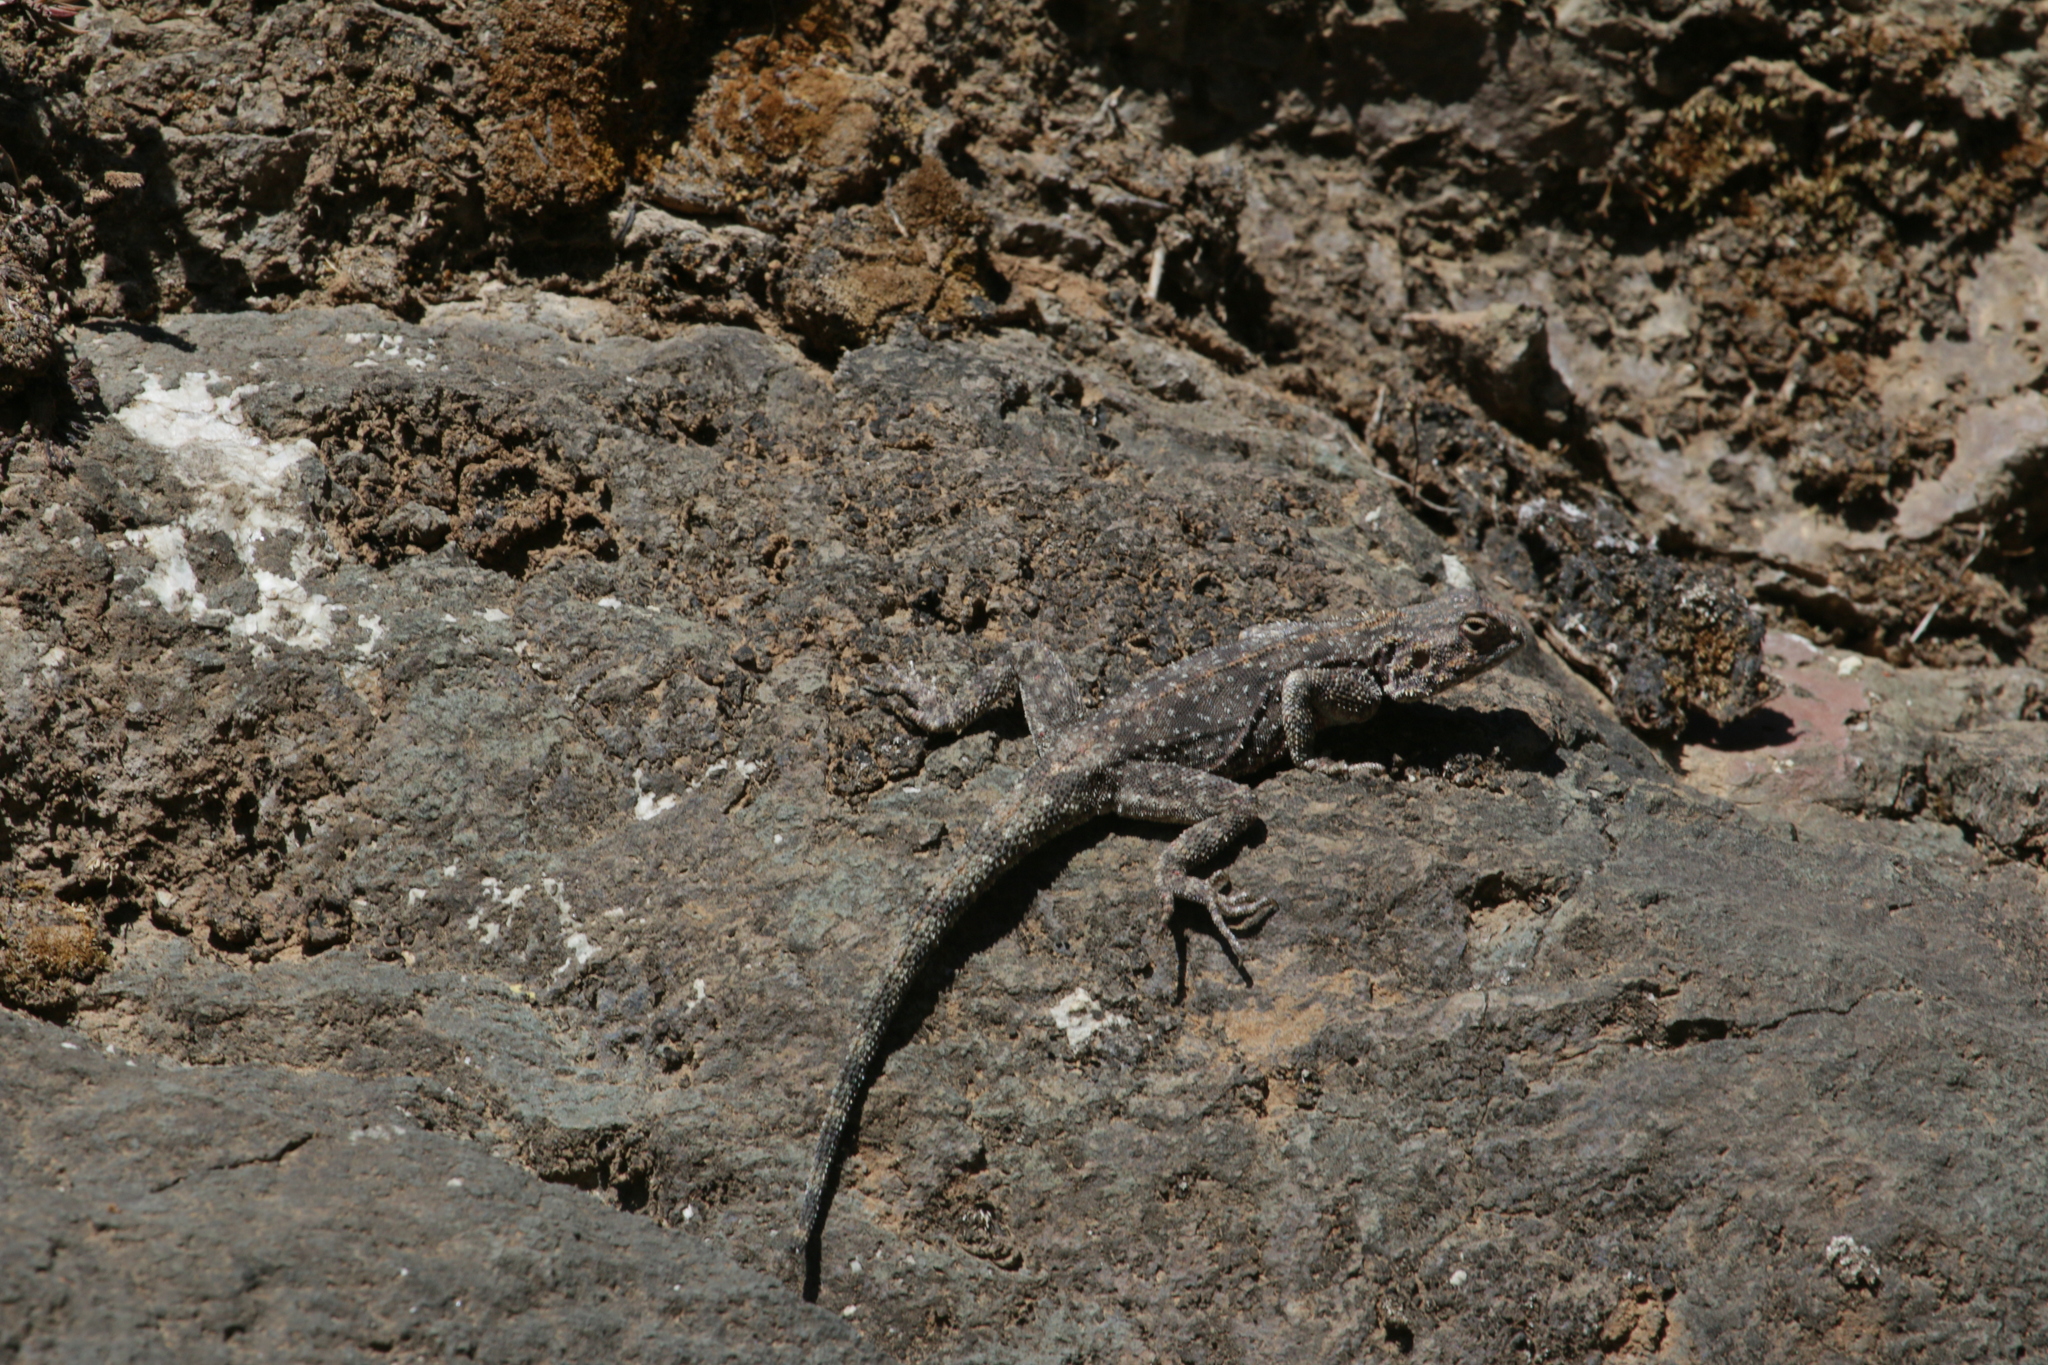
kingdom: Animalia
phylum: Chordata
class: Squamata
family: Agamidae
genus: Agama
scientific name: Agama atra
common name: Southern african rock agama
